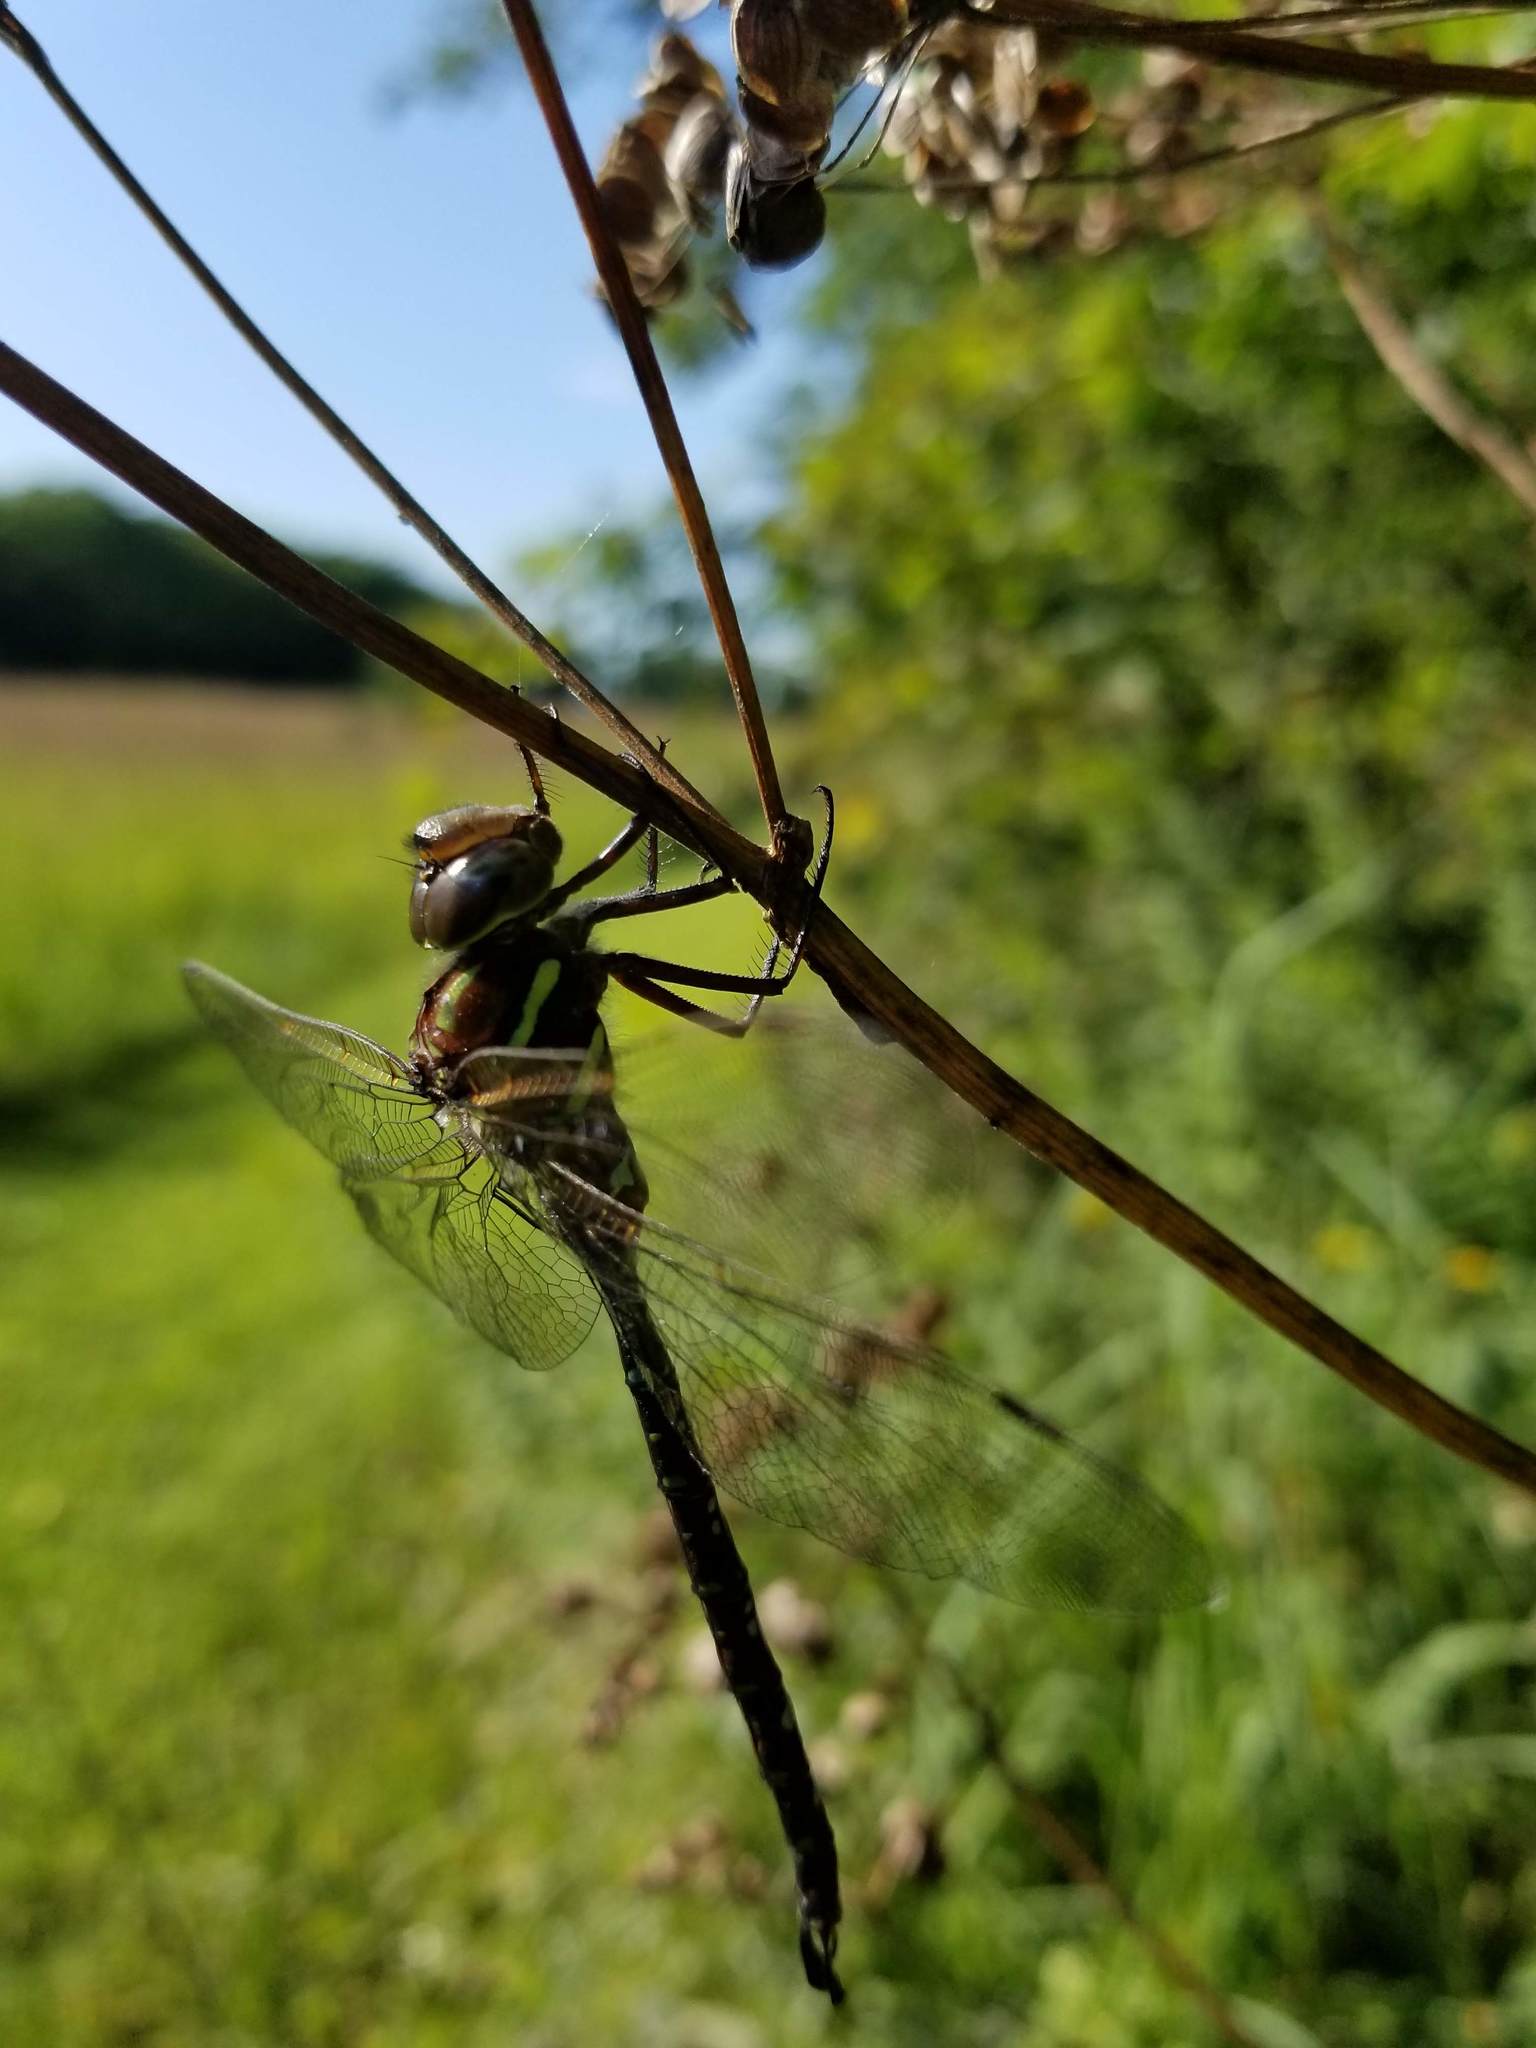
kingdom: Animalia
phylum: Arthropoda
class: Insecta
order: Odonata
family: Aeshnidae
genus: Aeshna
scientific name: Aeshna umbrosa
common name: Shadow darner
